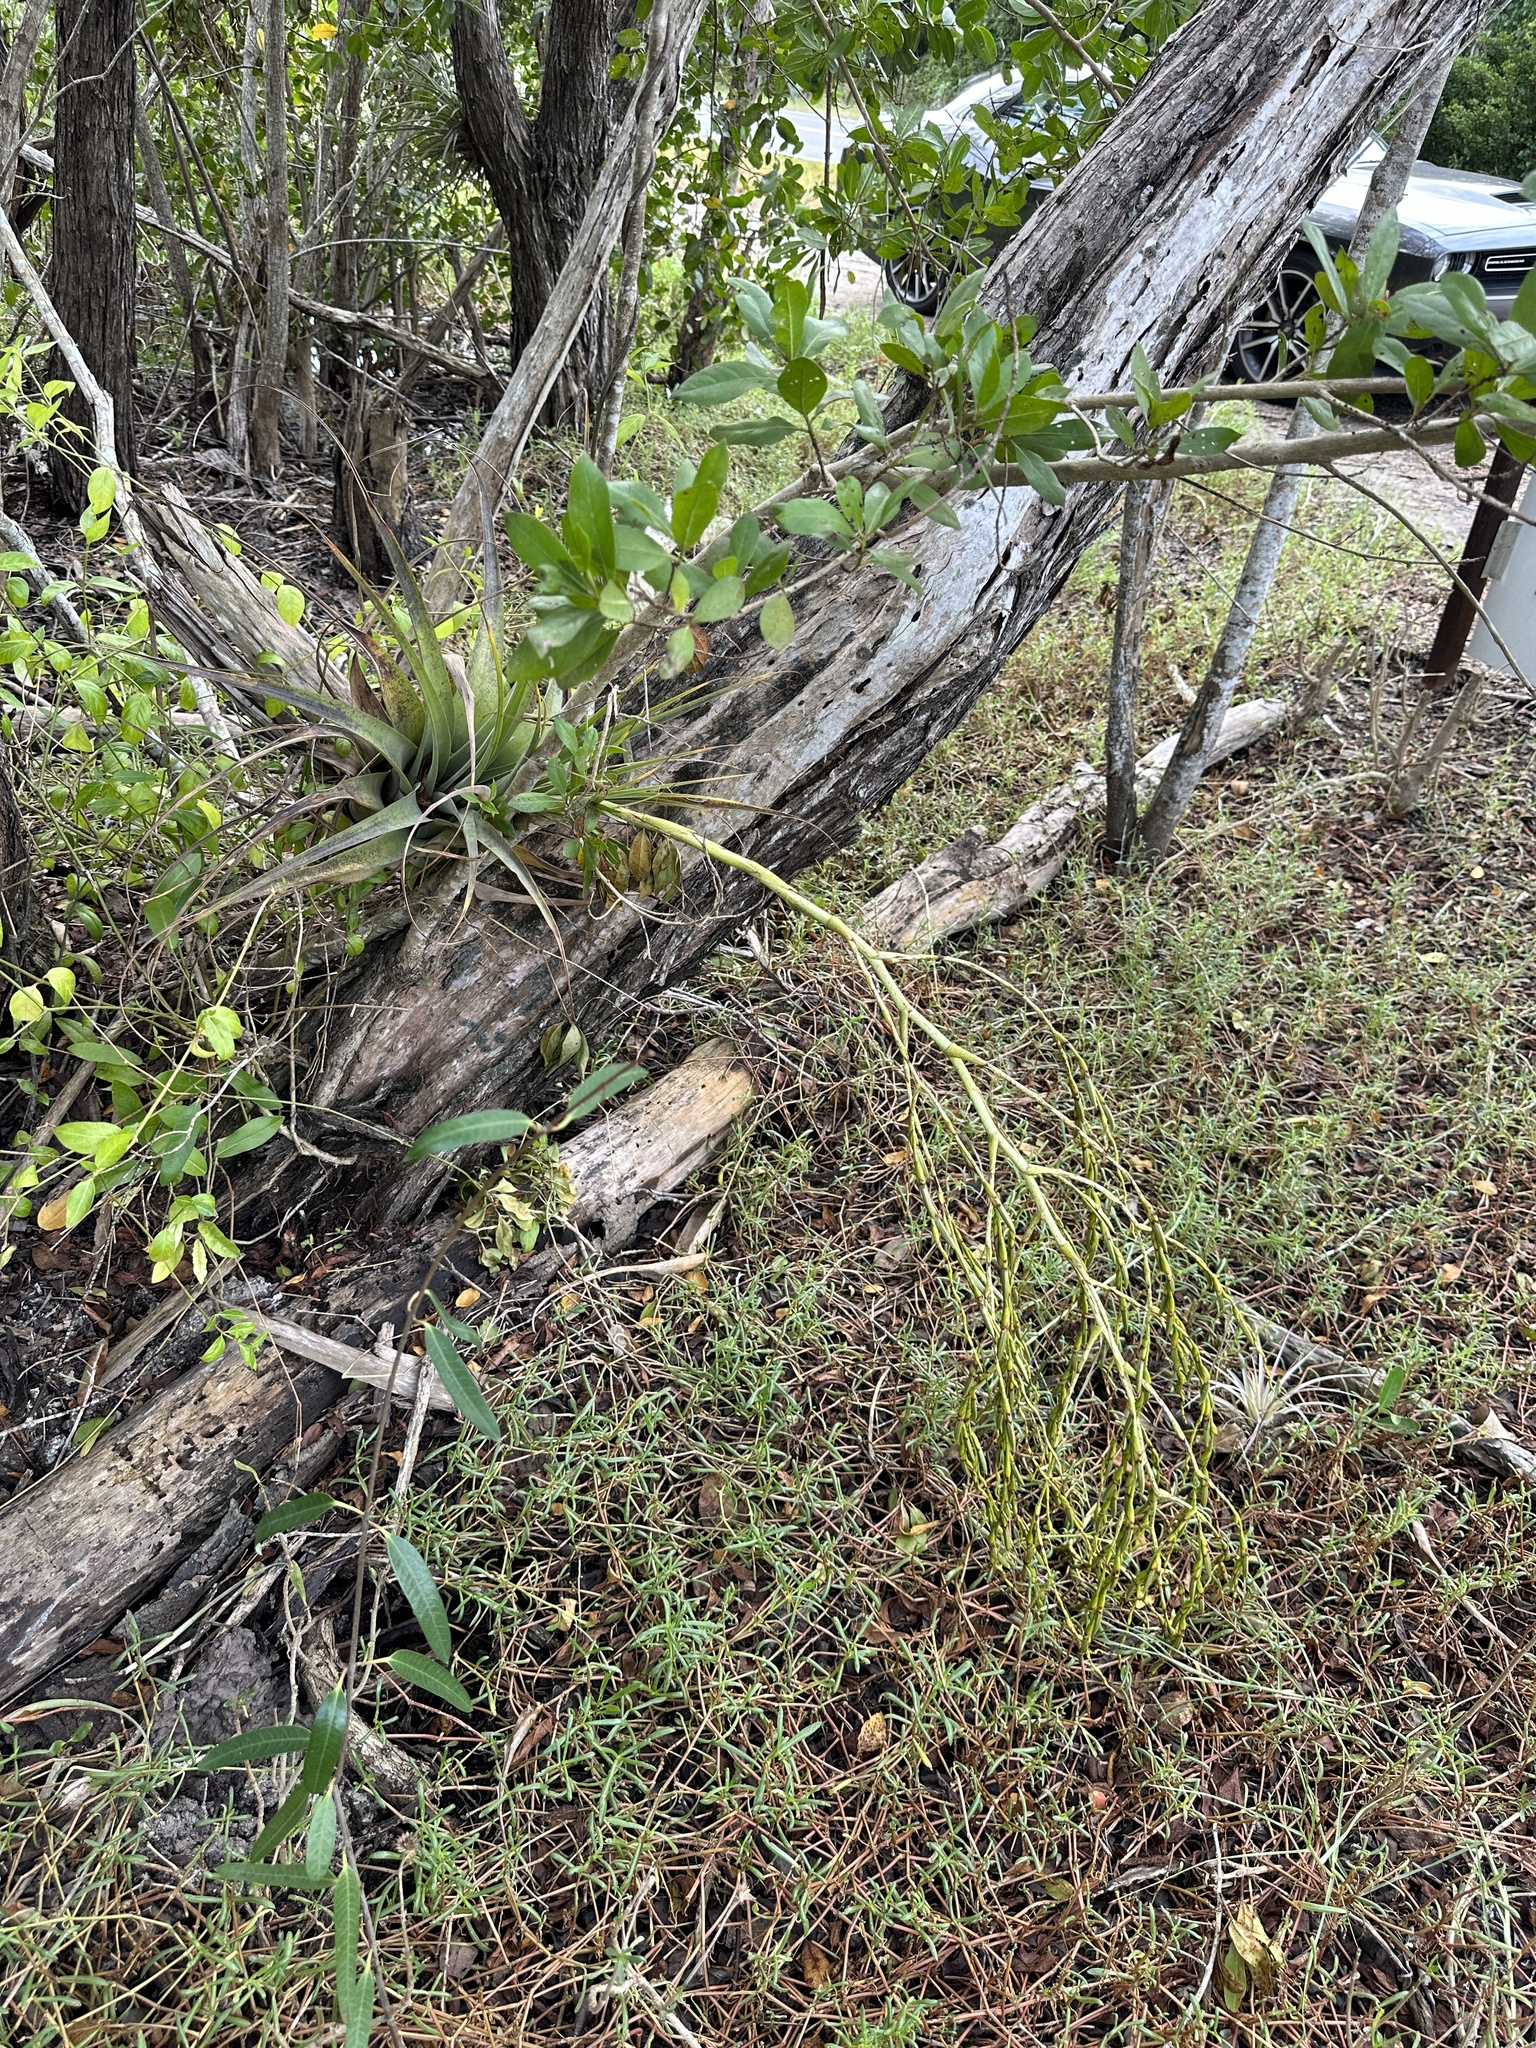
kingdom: Plantae
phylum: Tracheophyta
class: Liliopsida
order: Poales
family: Bromeliaceae
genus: Tillandsia
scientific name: Tillandsia utriculata
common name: Wild pine
